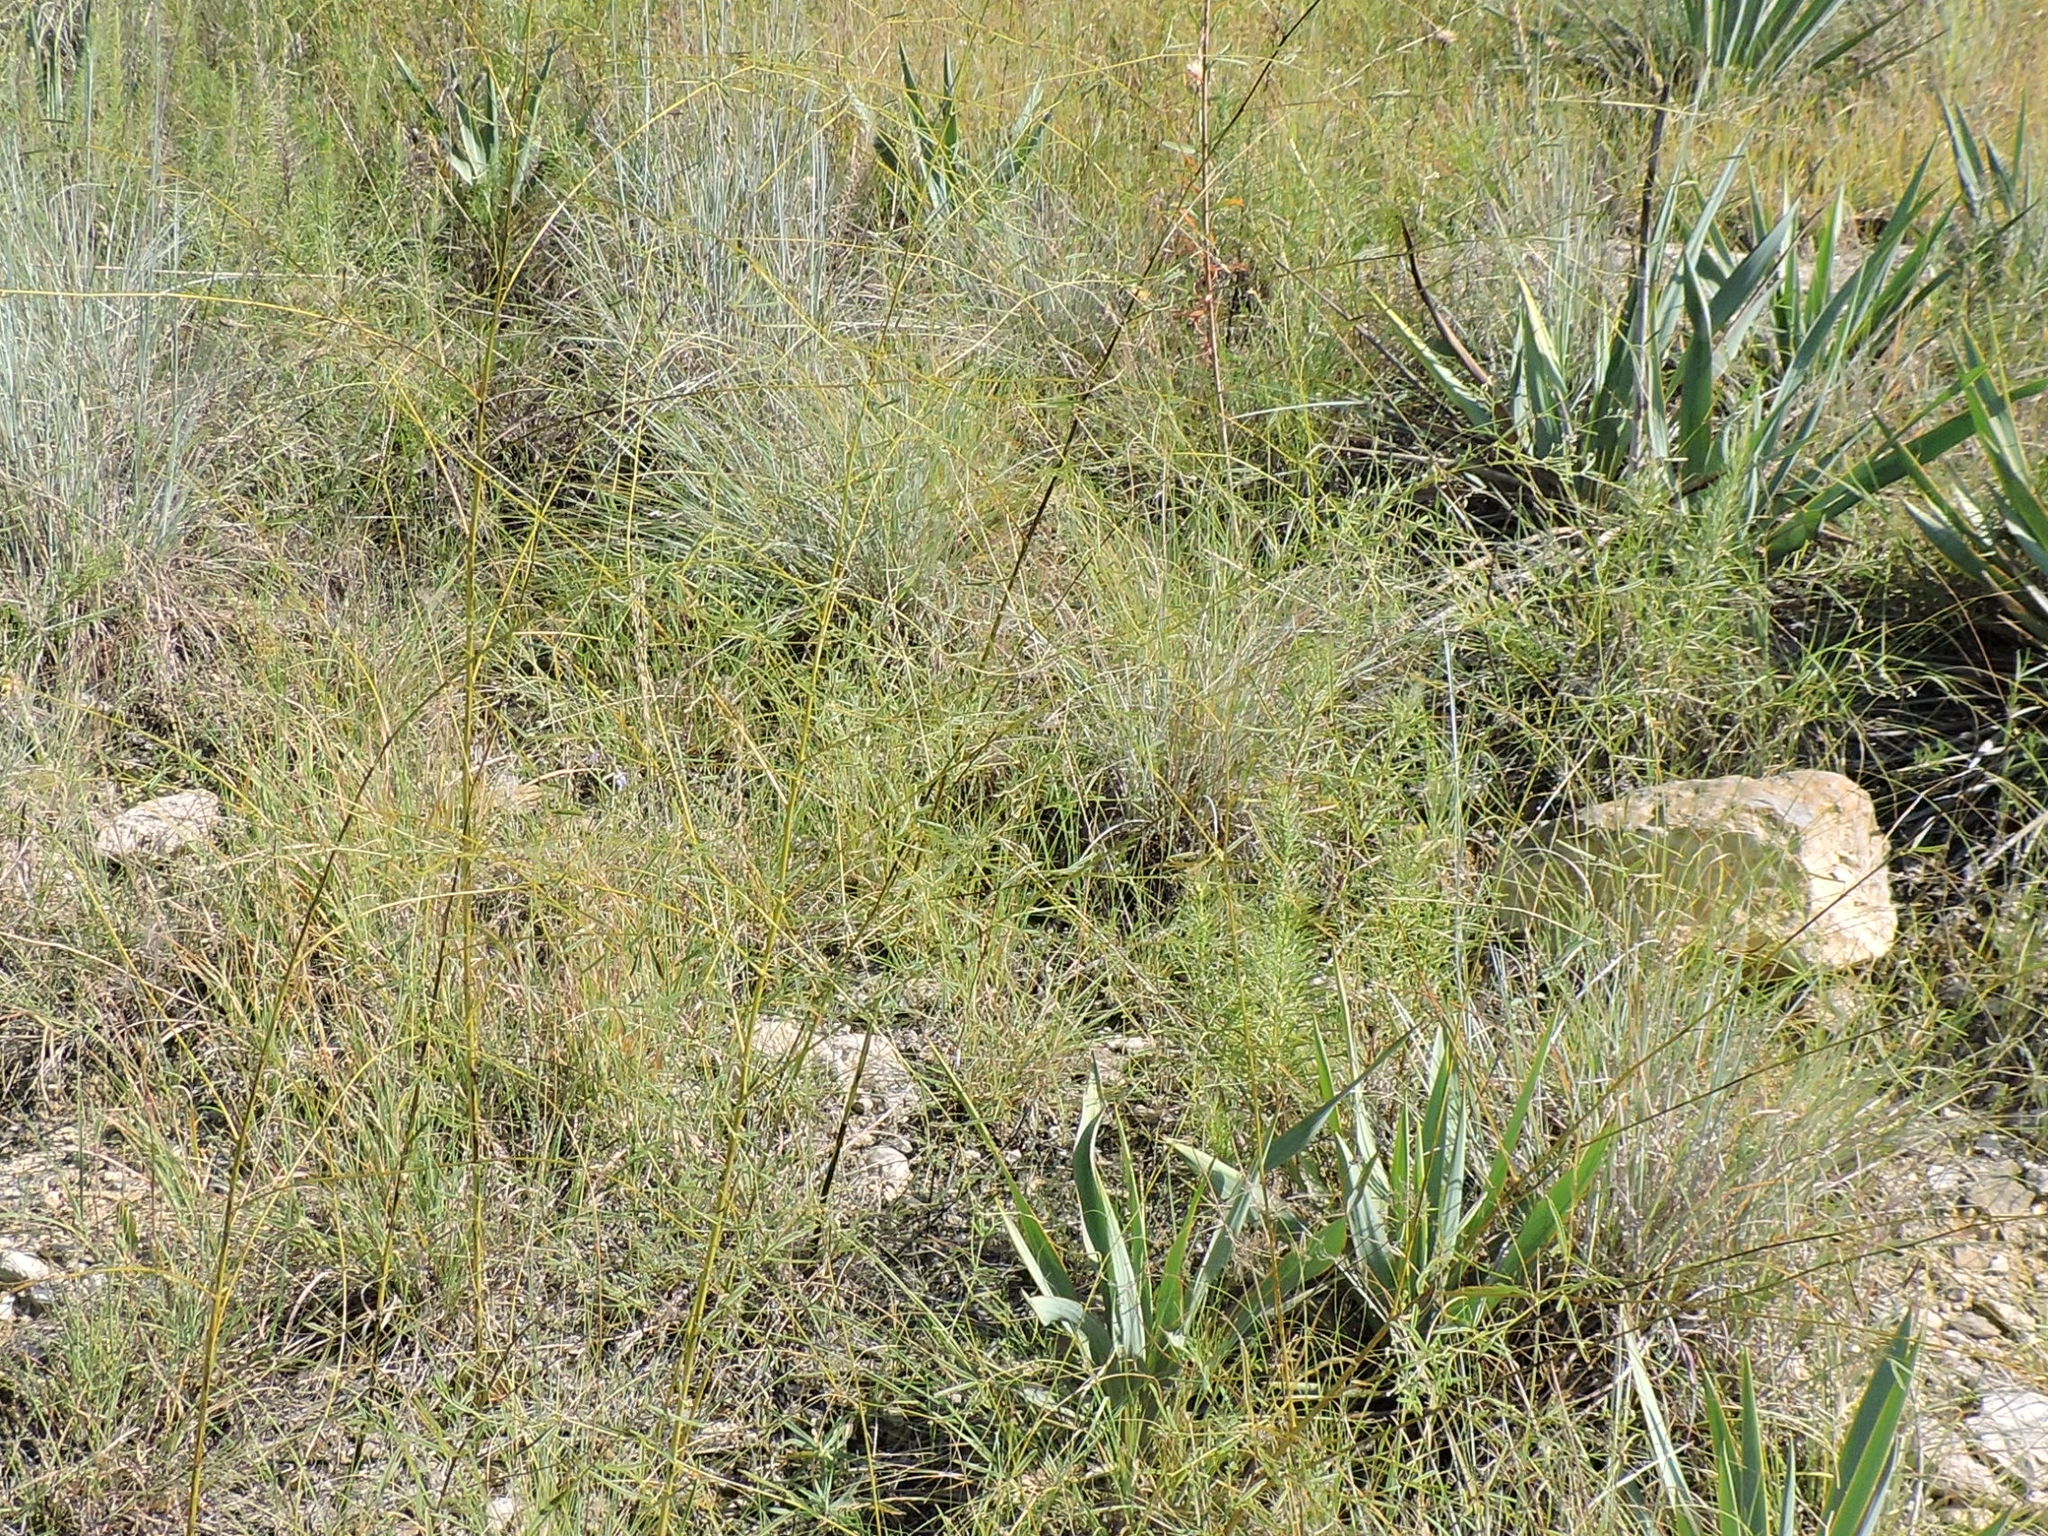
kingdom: Plantae
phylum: Tracheophyta
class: Magnoliopsida
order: Fabales
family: Fabaceae
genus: Pediomelum
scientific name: Pediomelum linearifolium
